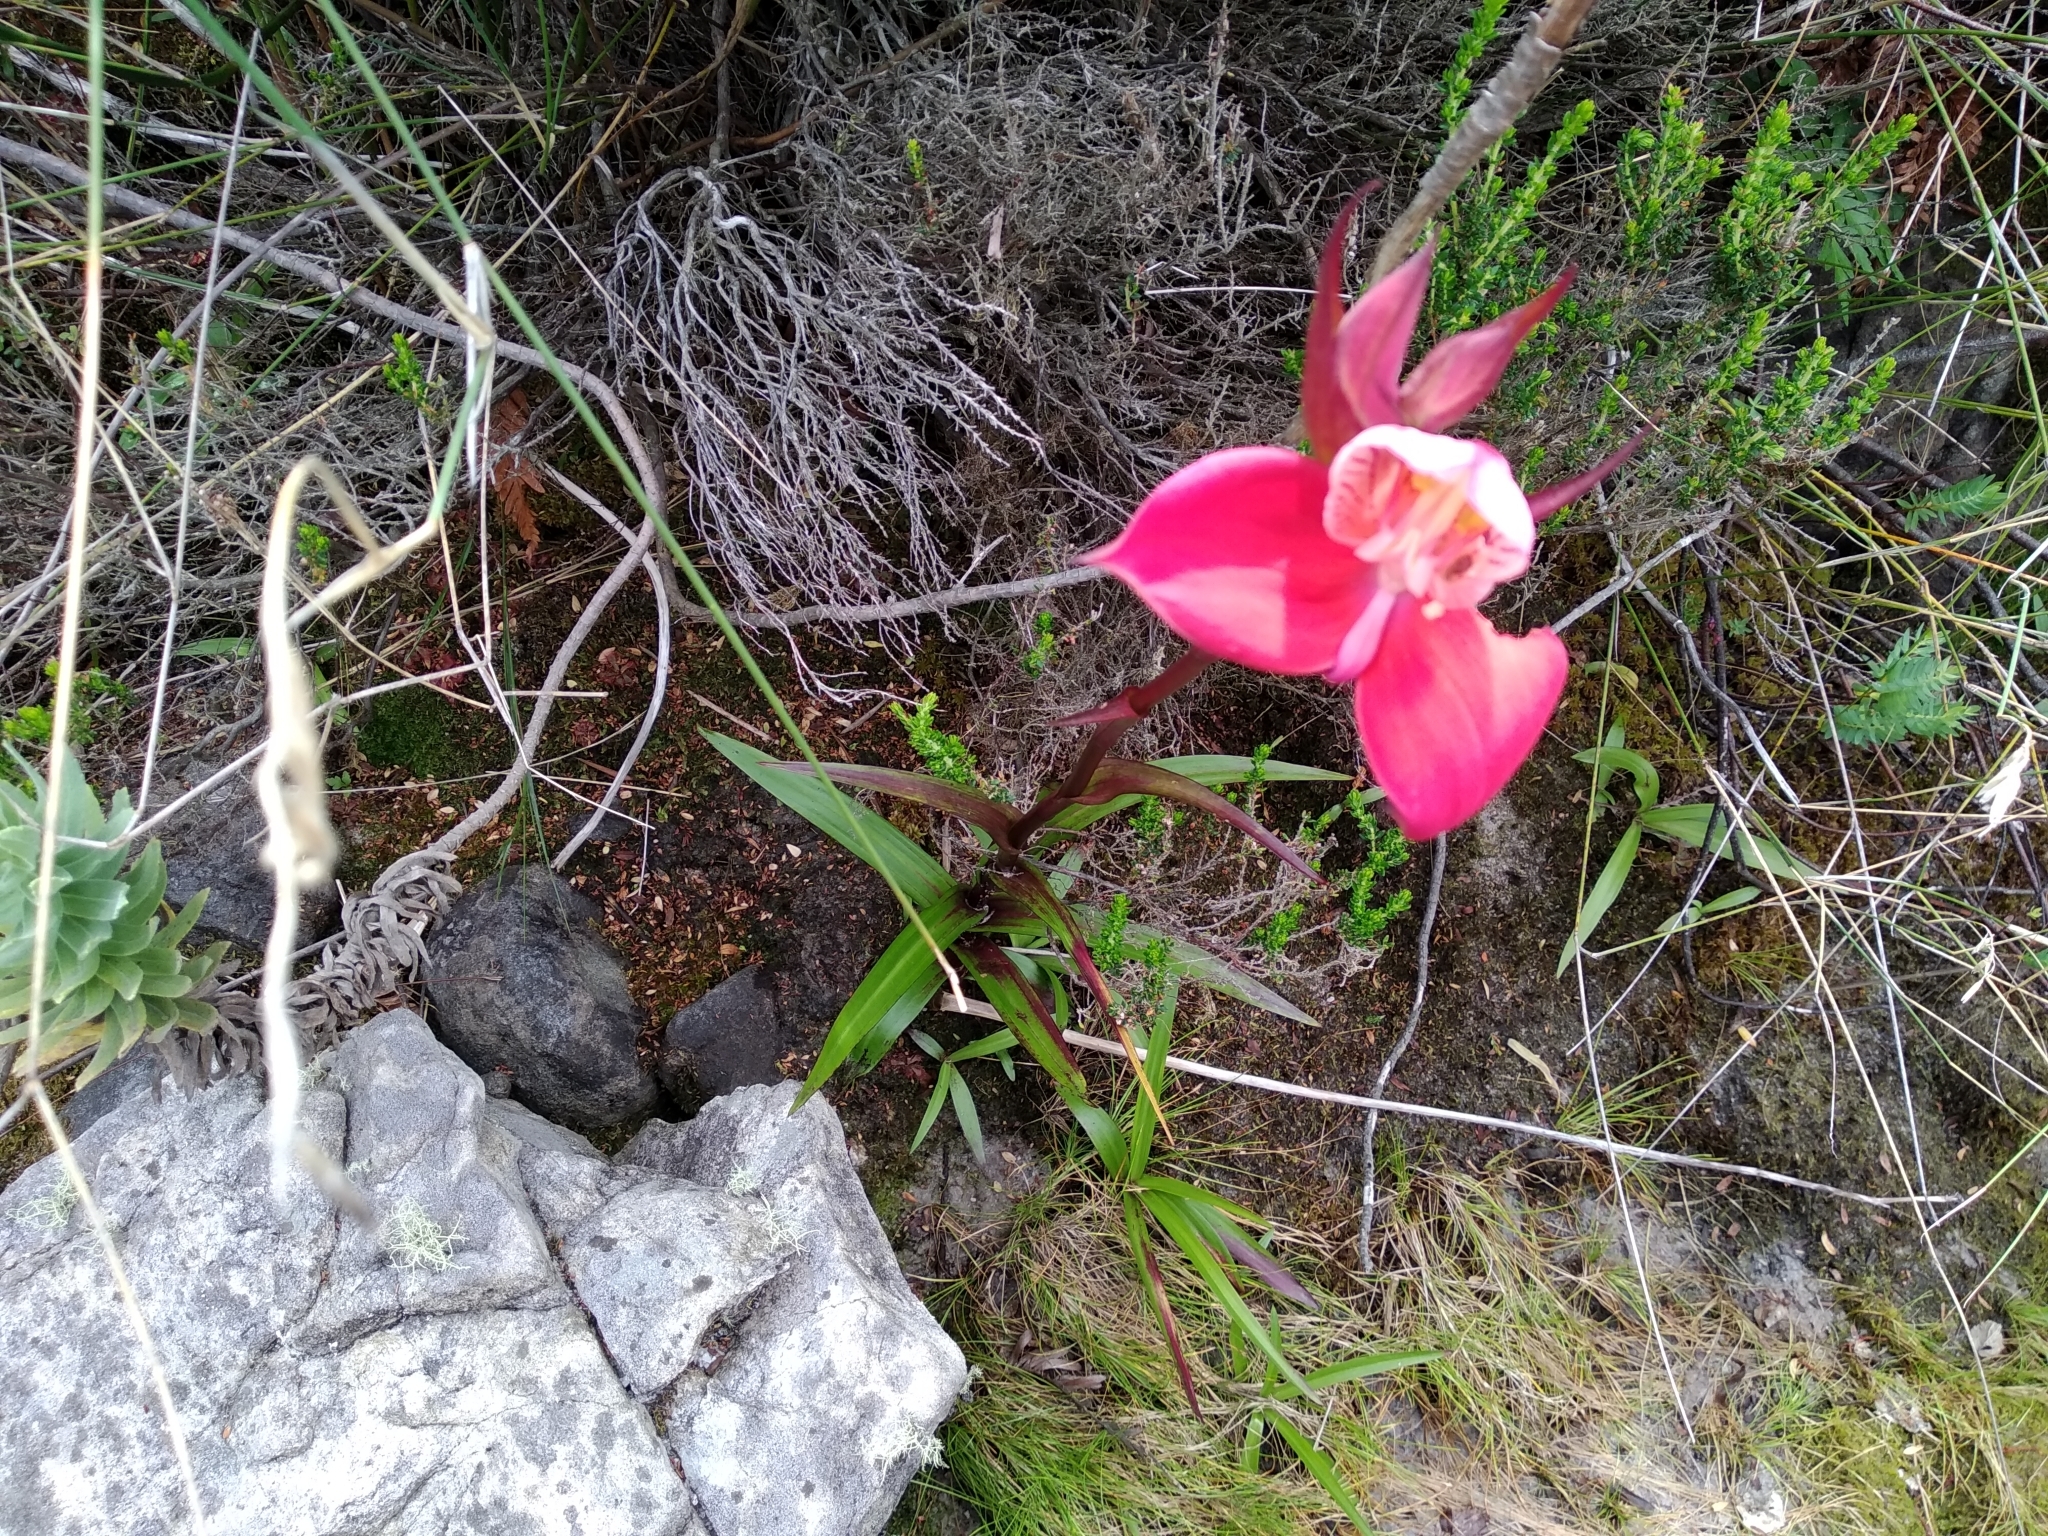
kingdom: Plantae
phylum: Tracheophyta
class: Liliopsida
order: Asparagales
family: Orchidaceae
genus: Disa
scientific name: Disa uniflora
